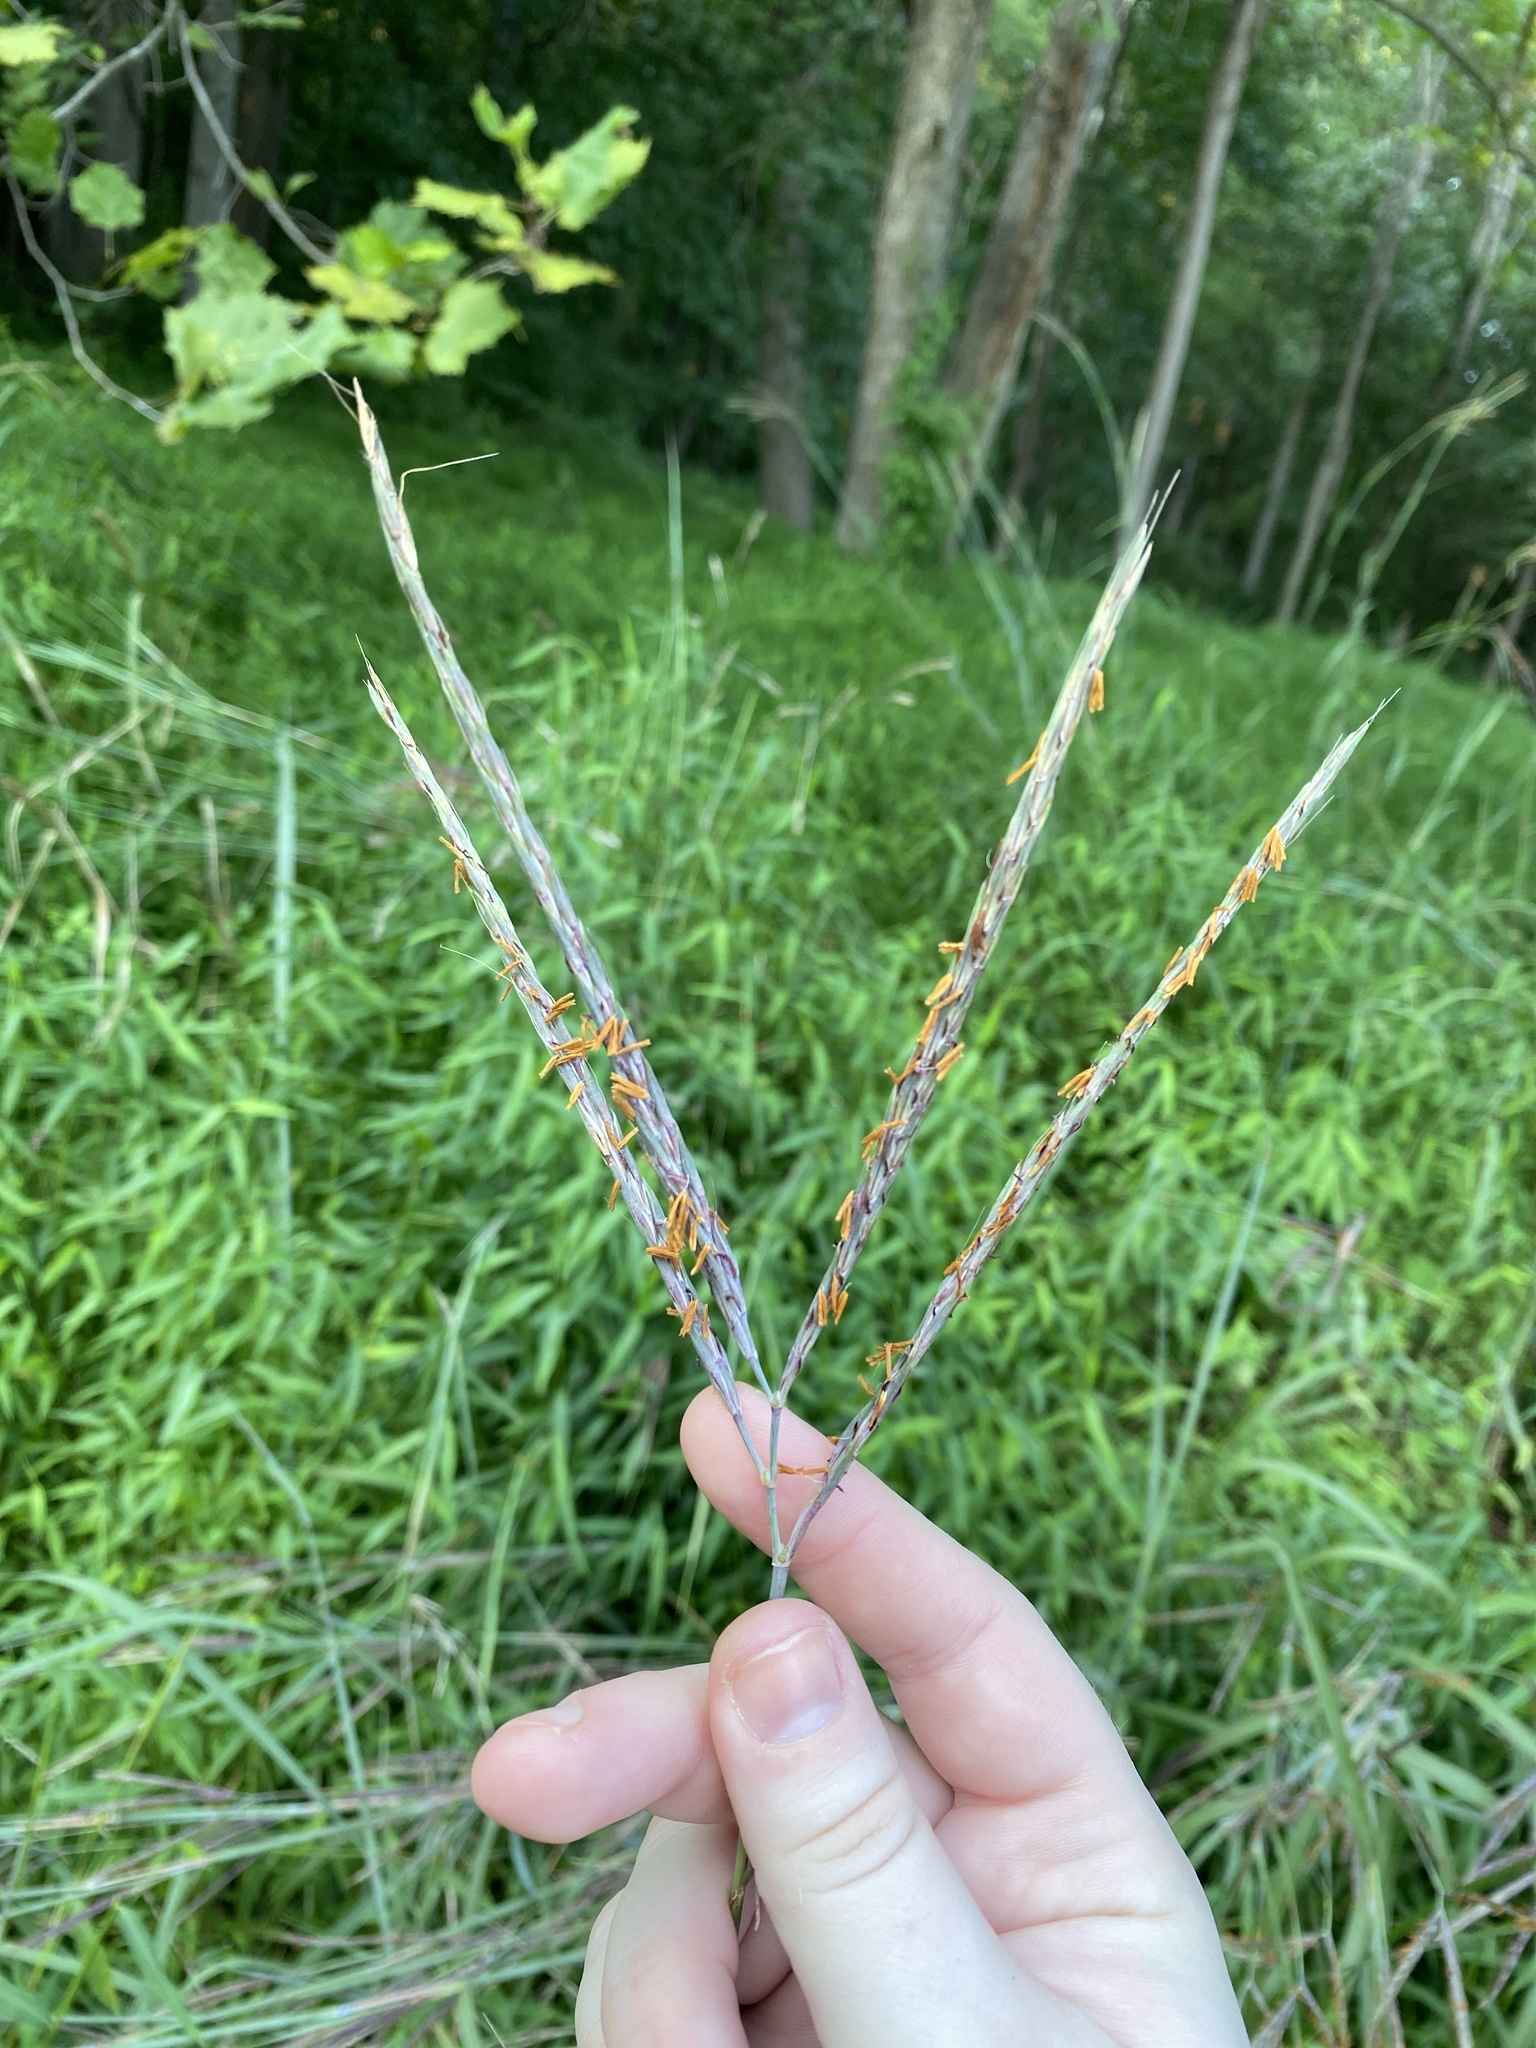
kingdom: Plantae
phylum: Tracheophyta
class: Liliopsida
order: Poales
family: Poaceae
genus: Andropogon
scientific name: Andropogon gerardi
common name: Big bluestem
